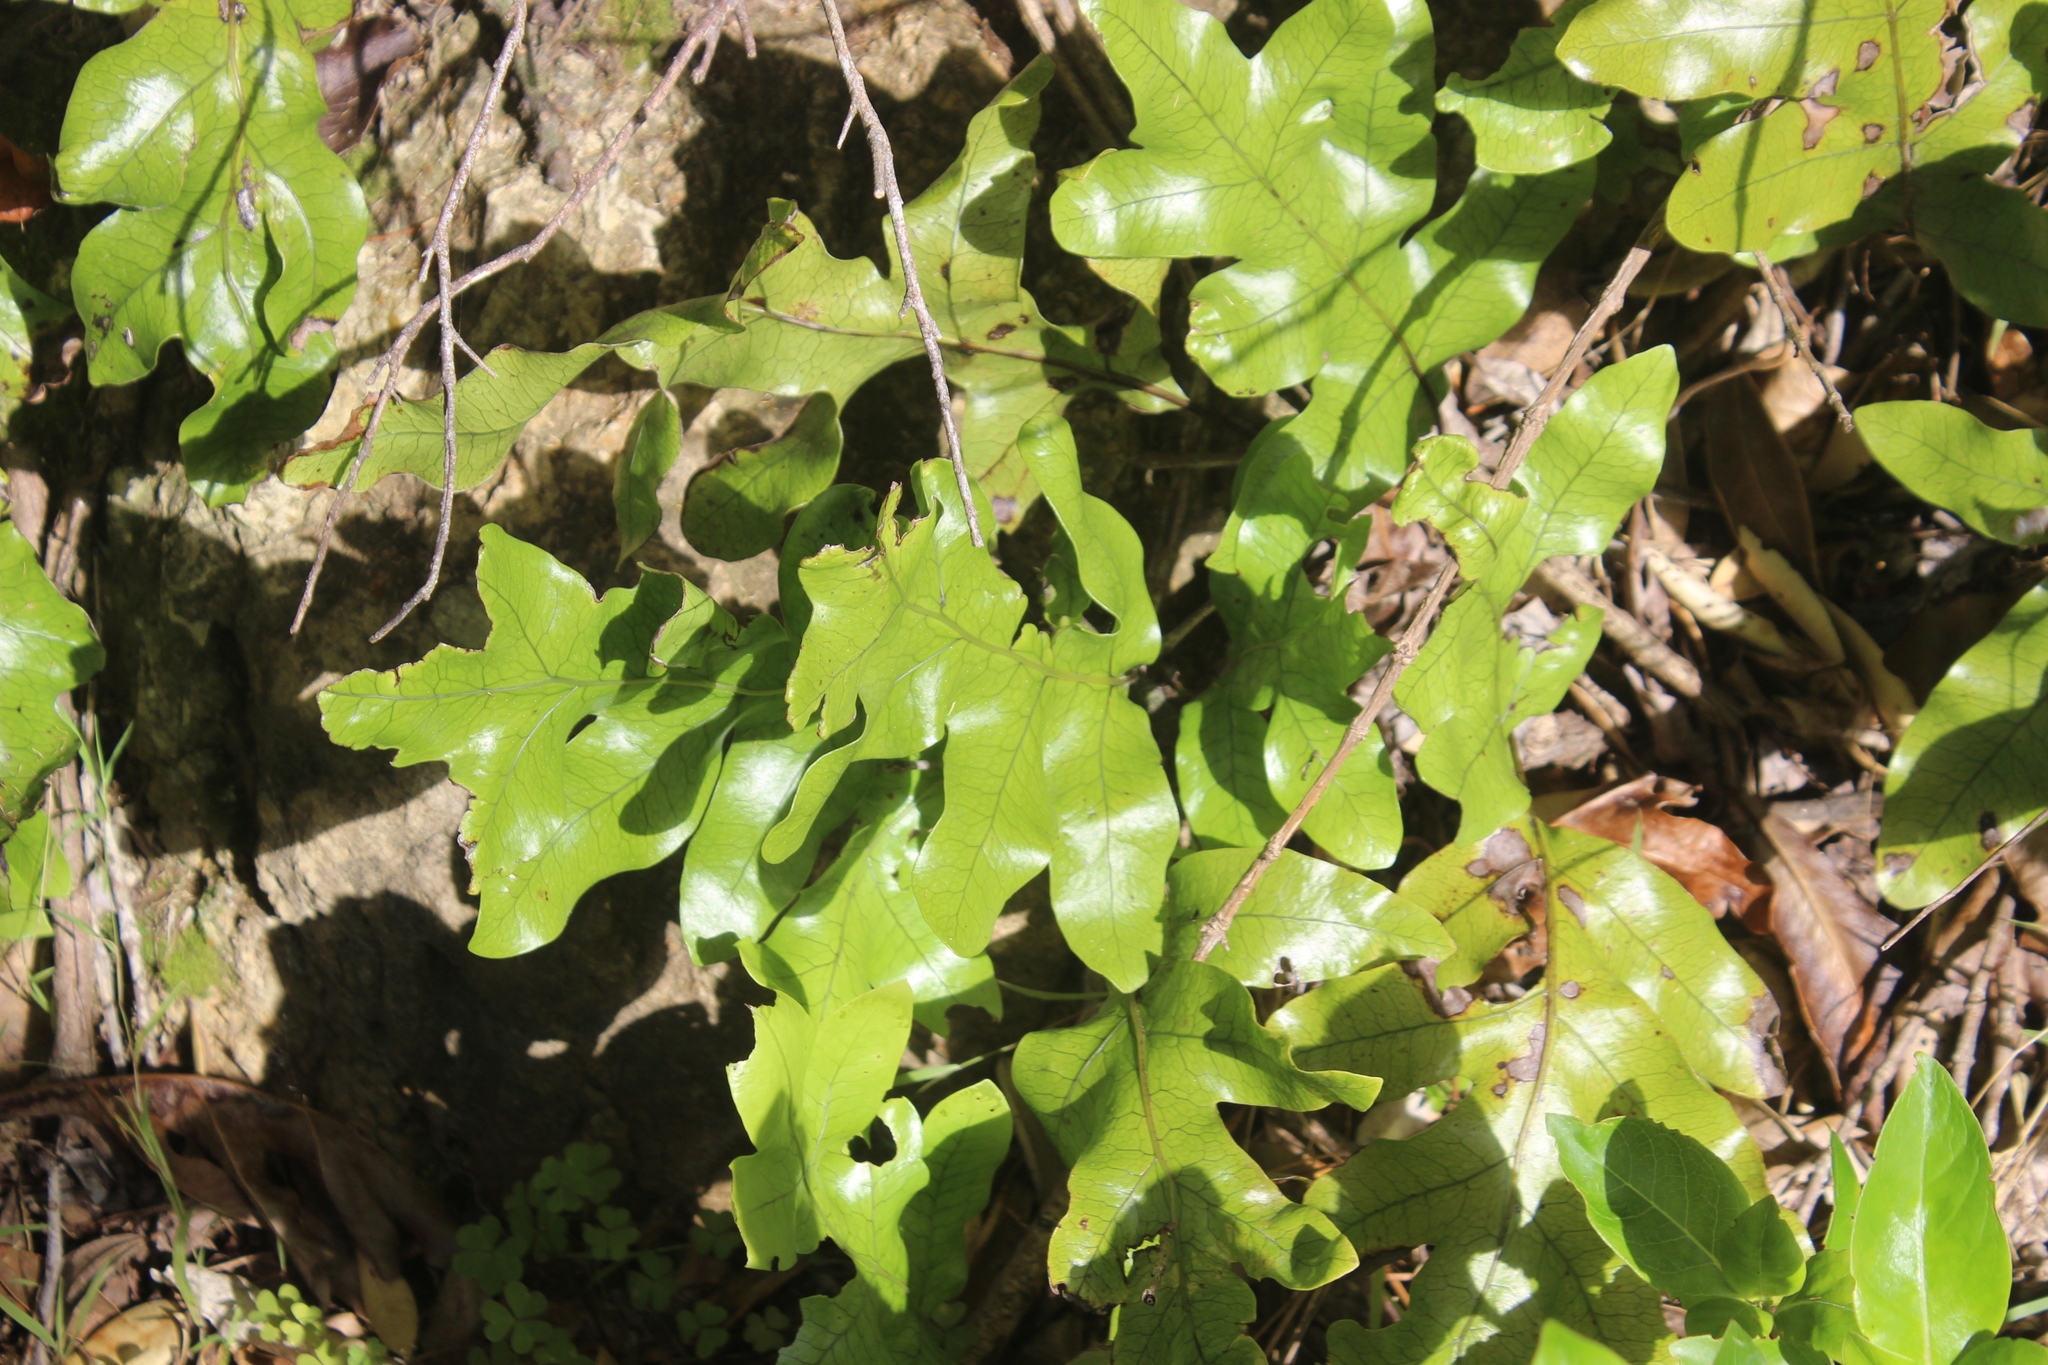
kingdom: Plantae
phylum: Tracheophyta
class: Polypodiopsida
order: Polypodiales
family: Polypodiaceae
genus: Lecanopteris
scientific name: Lecanopteris pustulata
